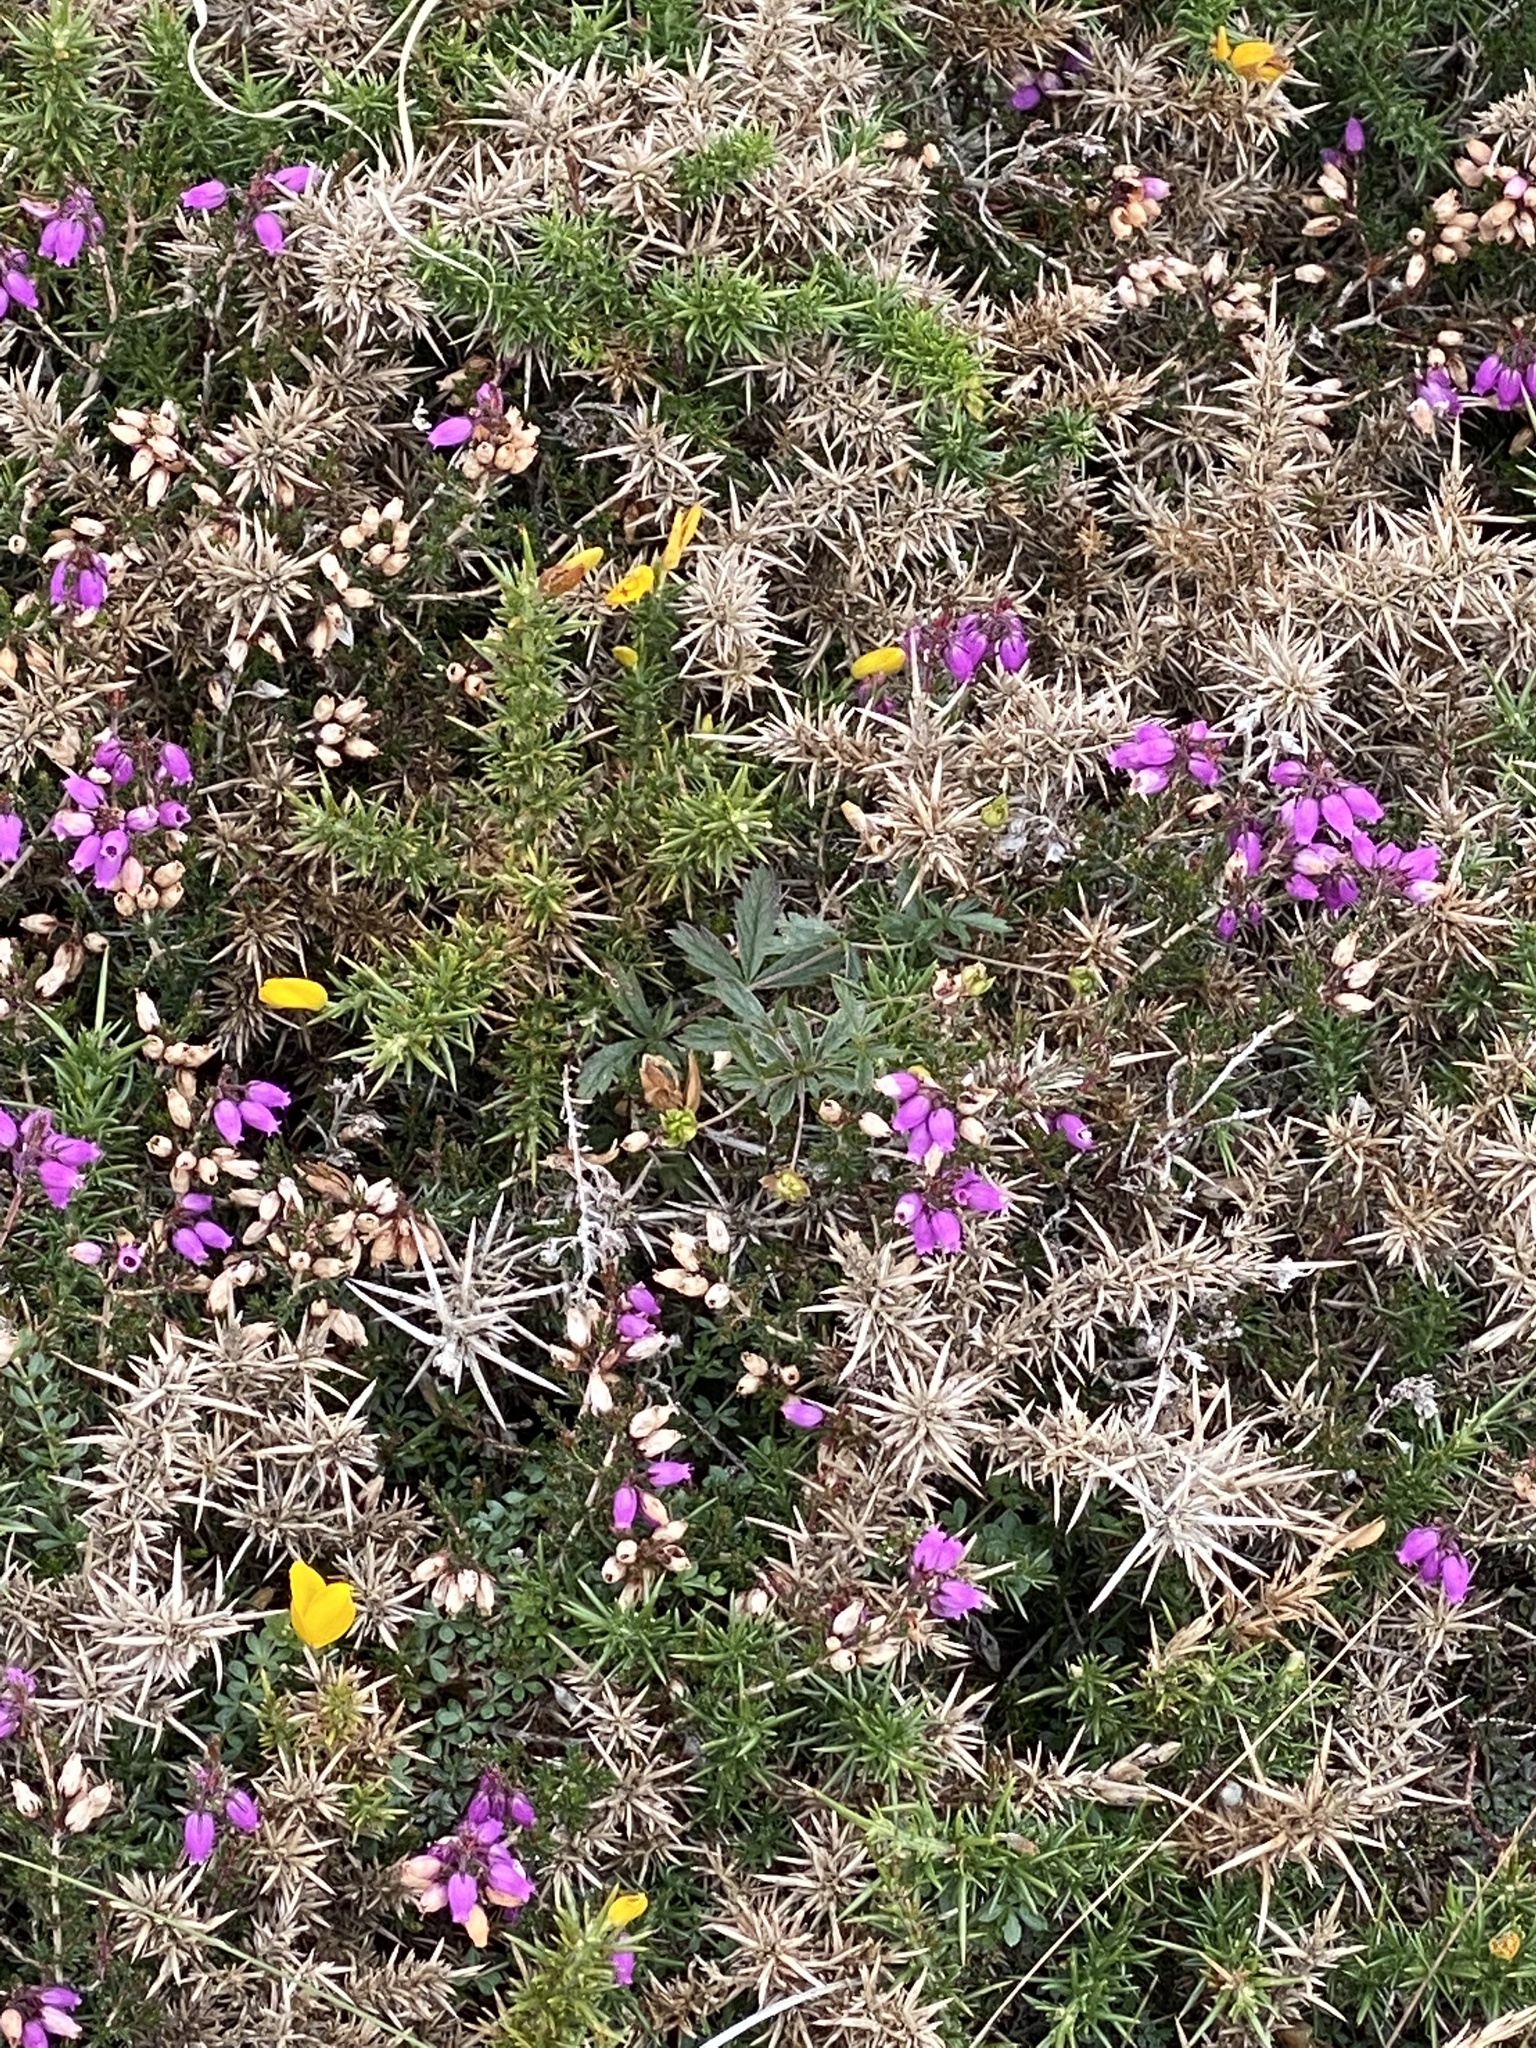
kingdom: Plantae
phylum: Tracheophyta
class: Magnoliopsida
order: Ericales
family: Ericaceae
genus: Erica
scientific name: Erica cinerea
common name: Bell heather
